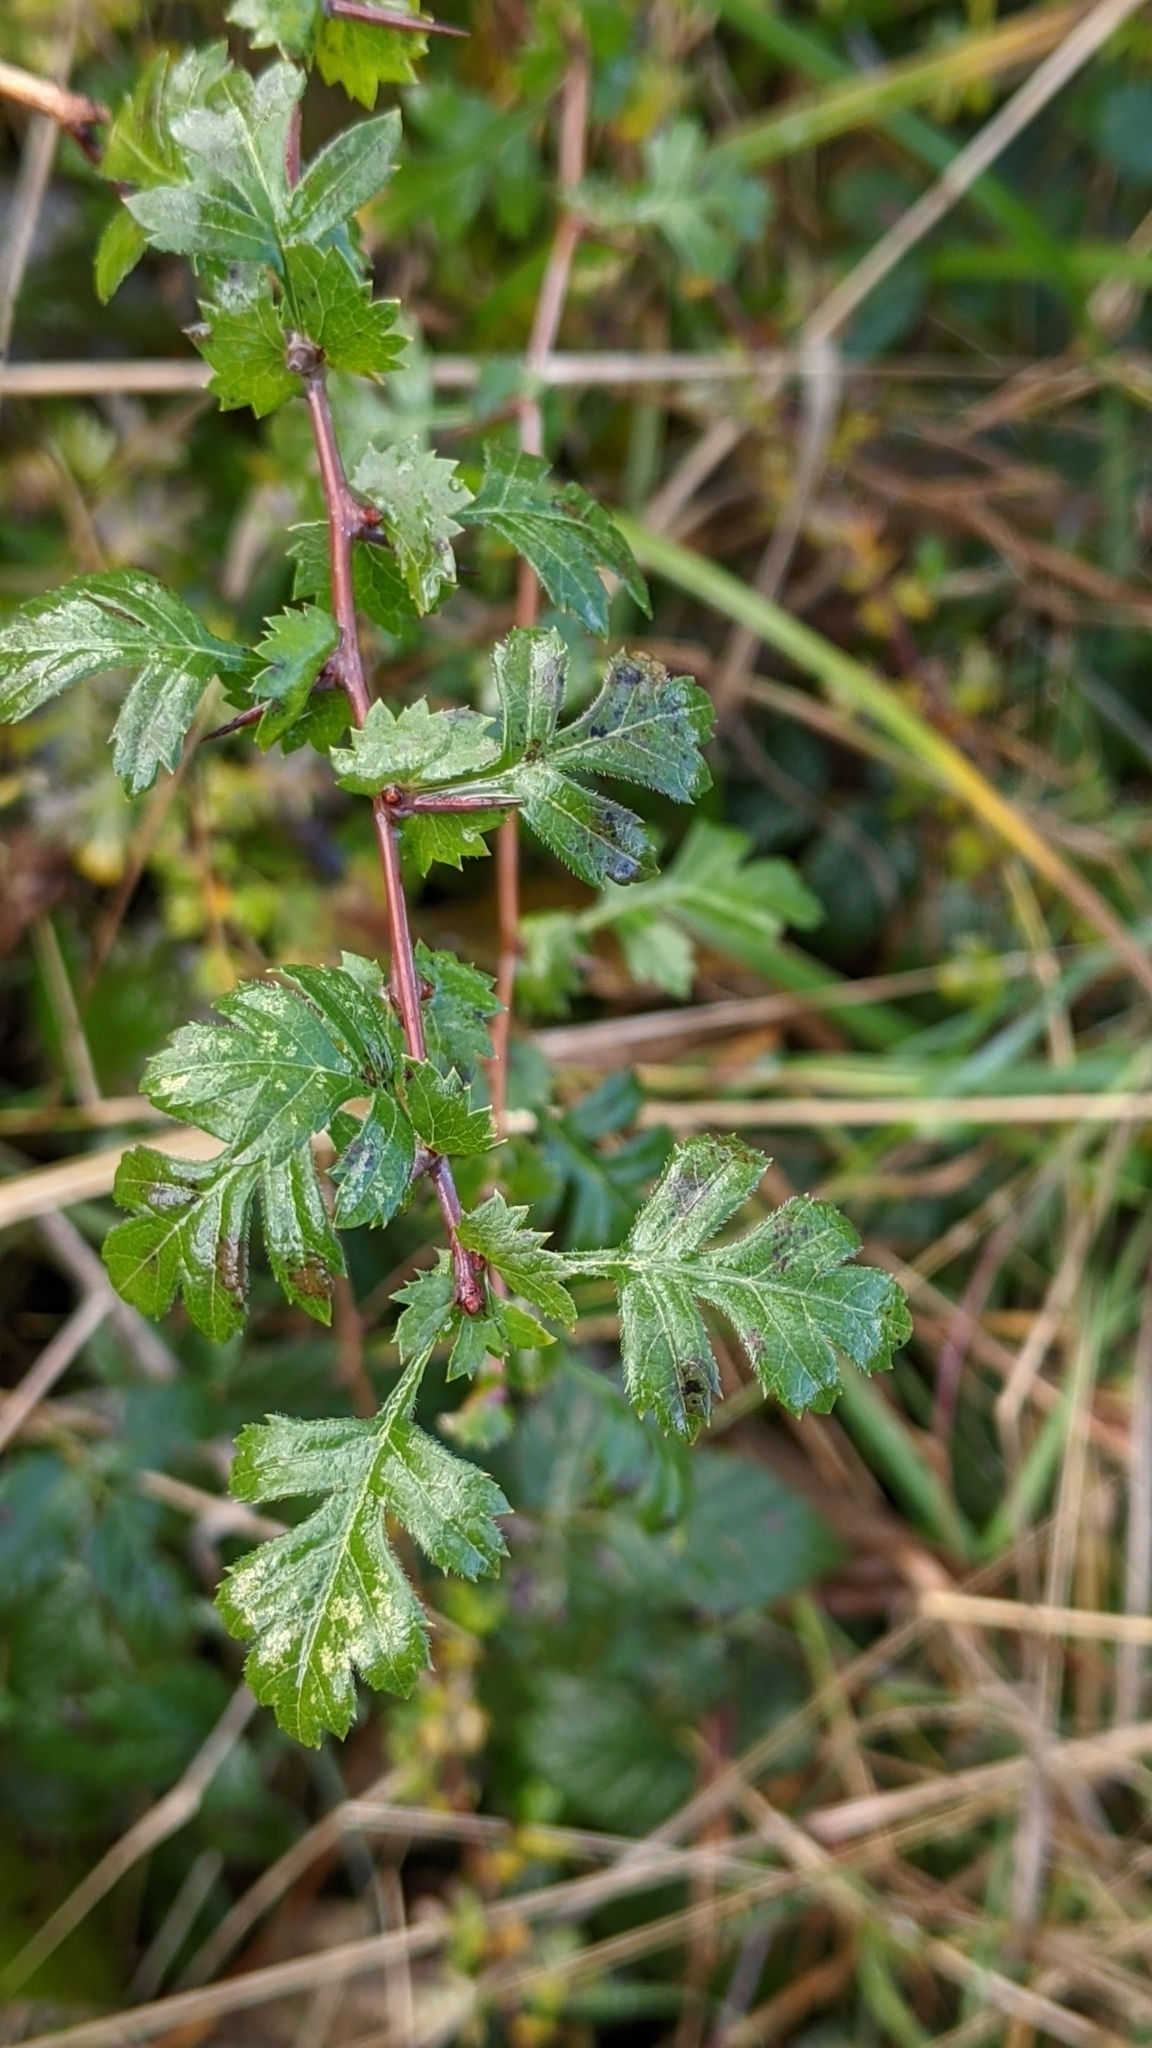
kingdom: Plantae
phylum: Tracheophyta
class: Magnoliopsida
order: Rosales
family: Rosaceae
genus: Crataegus
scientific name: Crataegus monogyna
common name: Hawthorn
